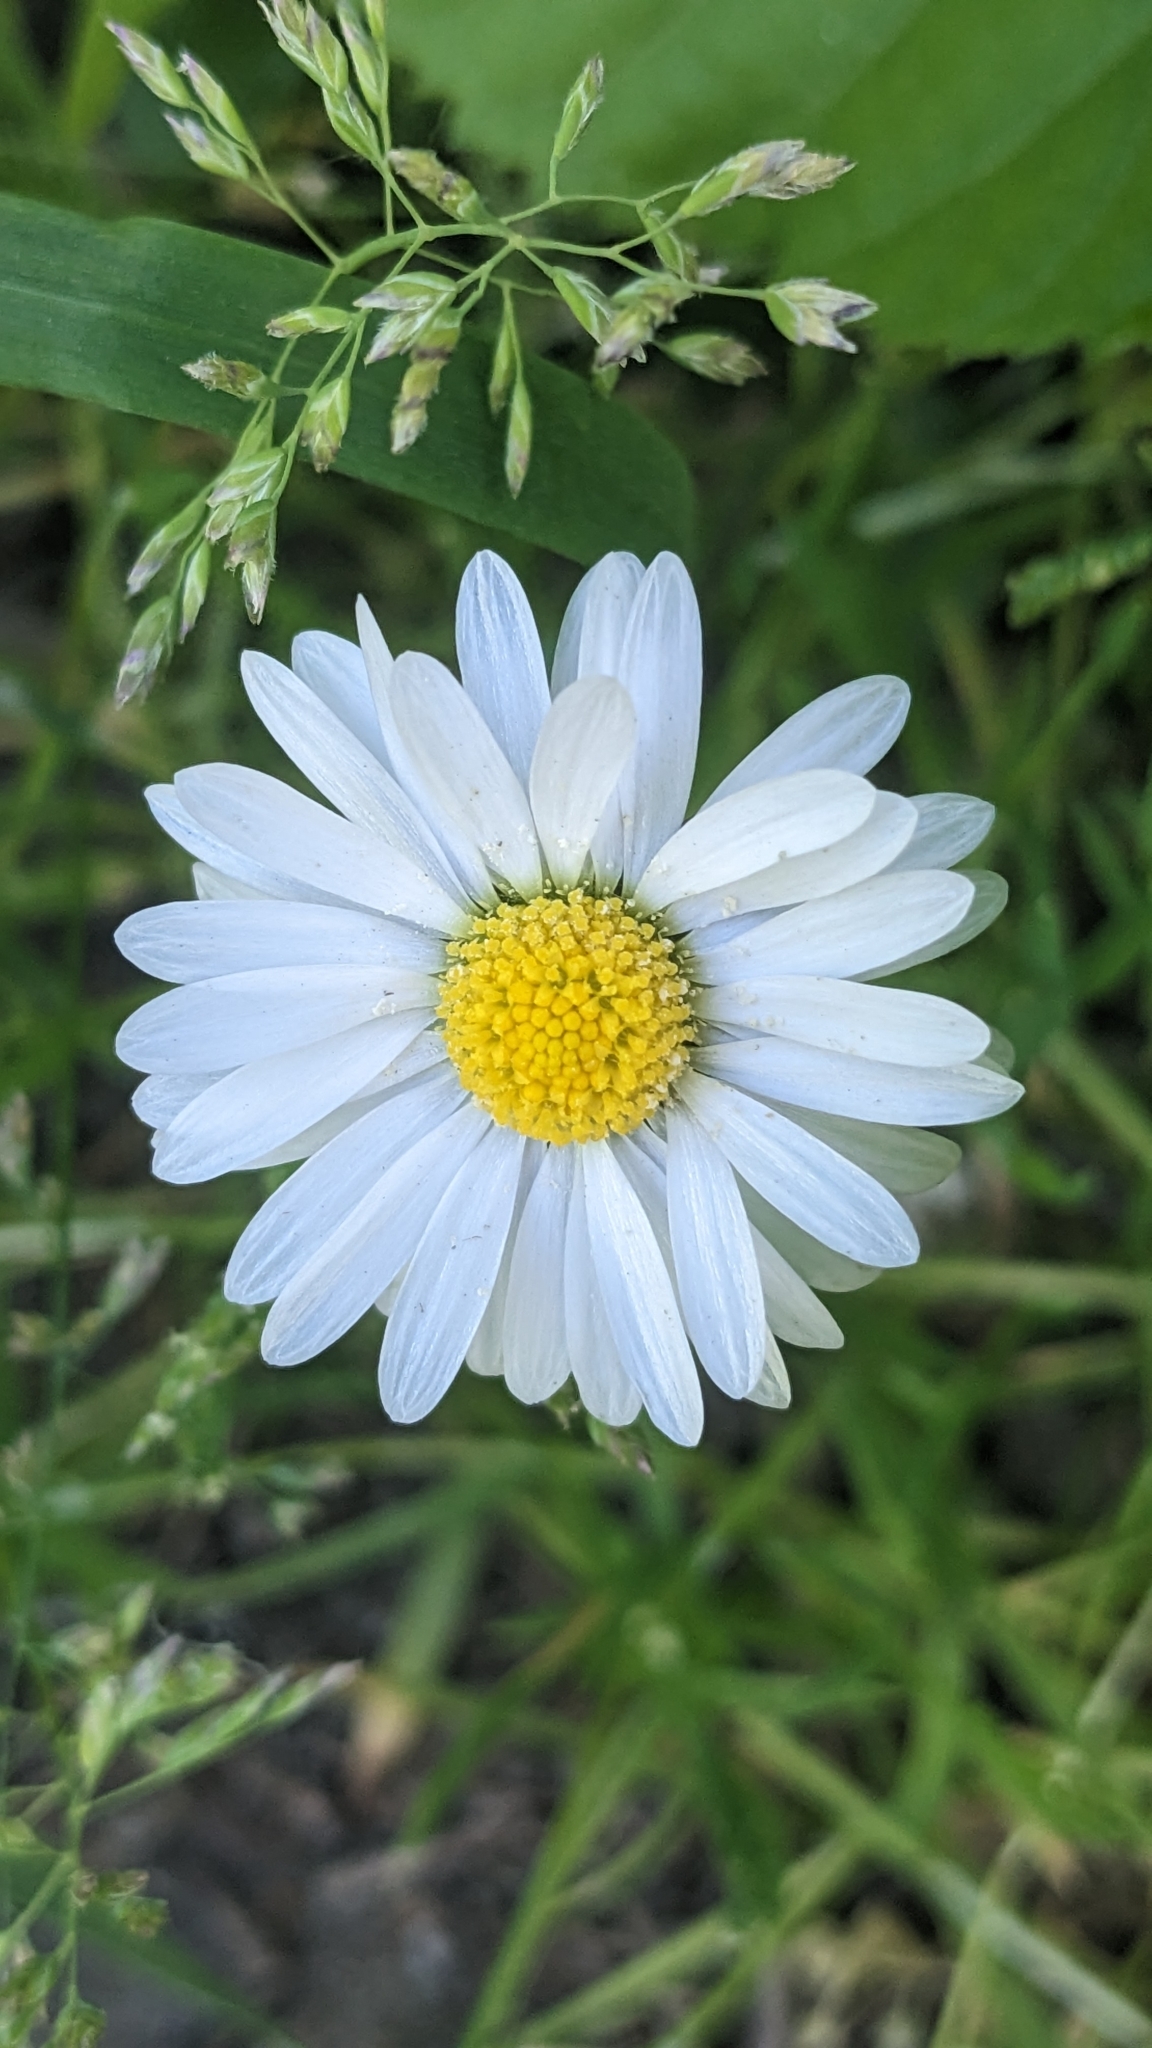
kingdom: Plantae
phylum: Tracheophyta
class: Magnoliopsida
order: Asterales
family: Asteraceae
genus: Bellis
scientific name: Bellis perennis
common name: Lawndaisy
